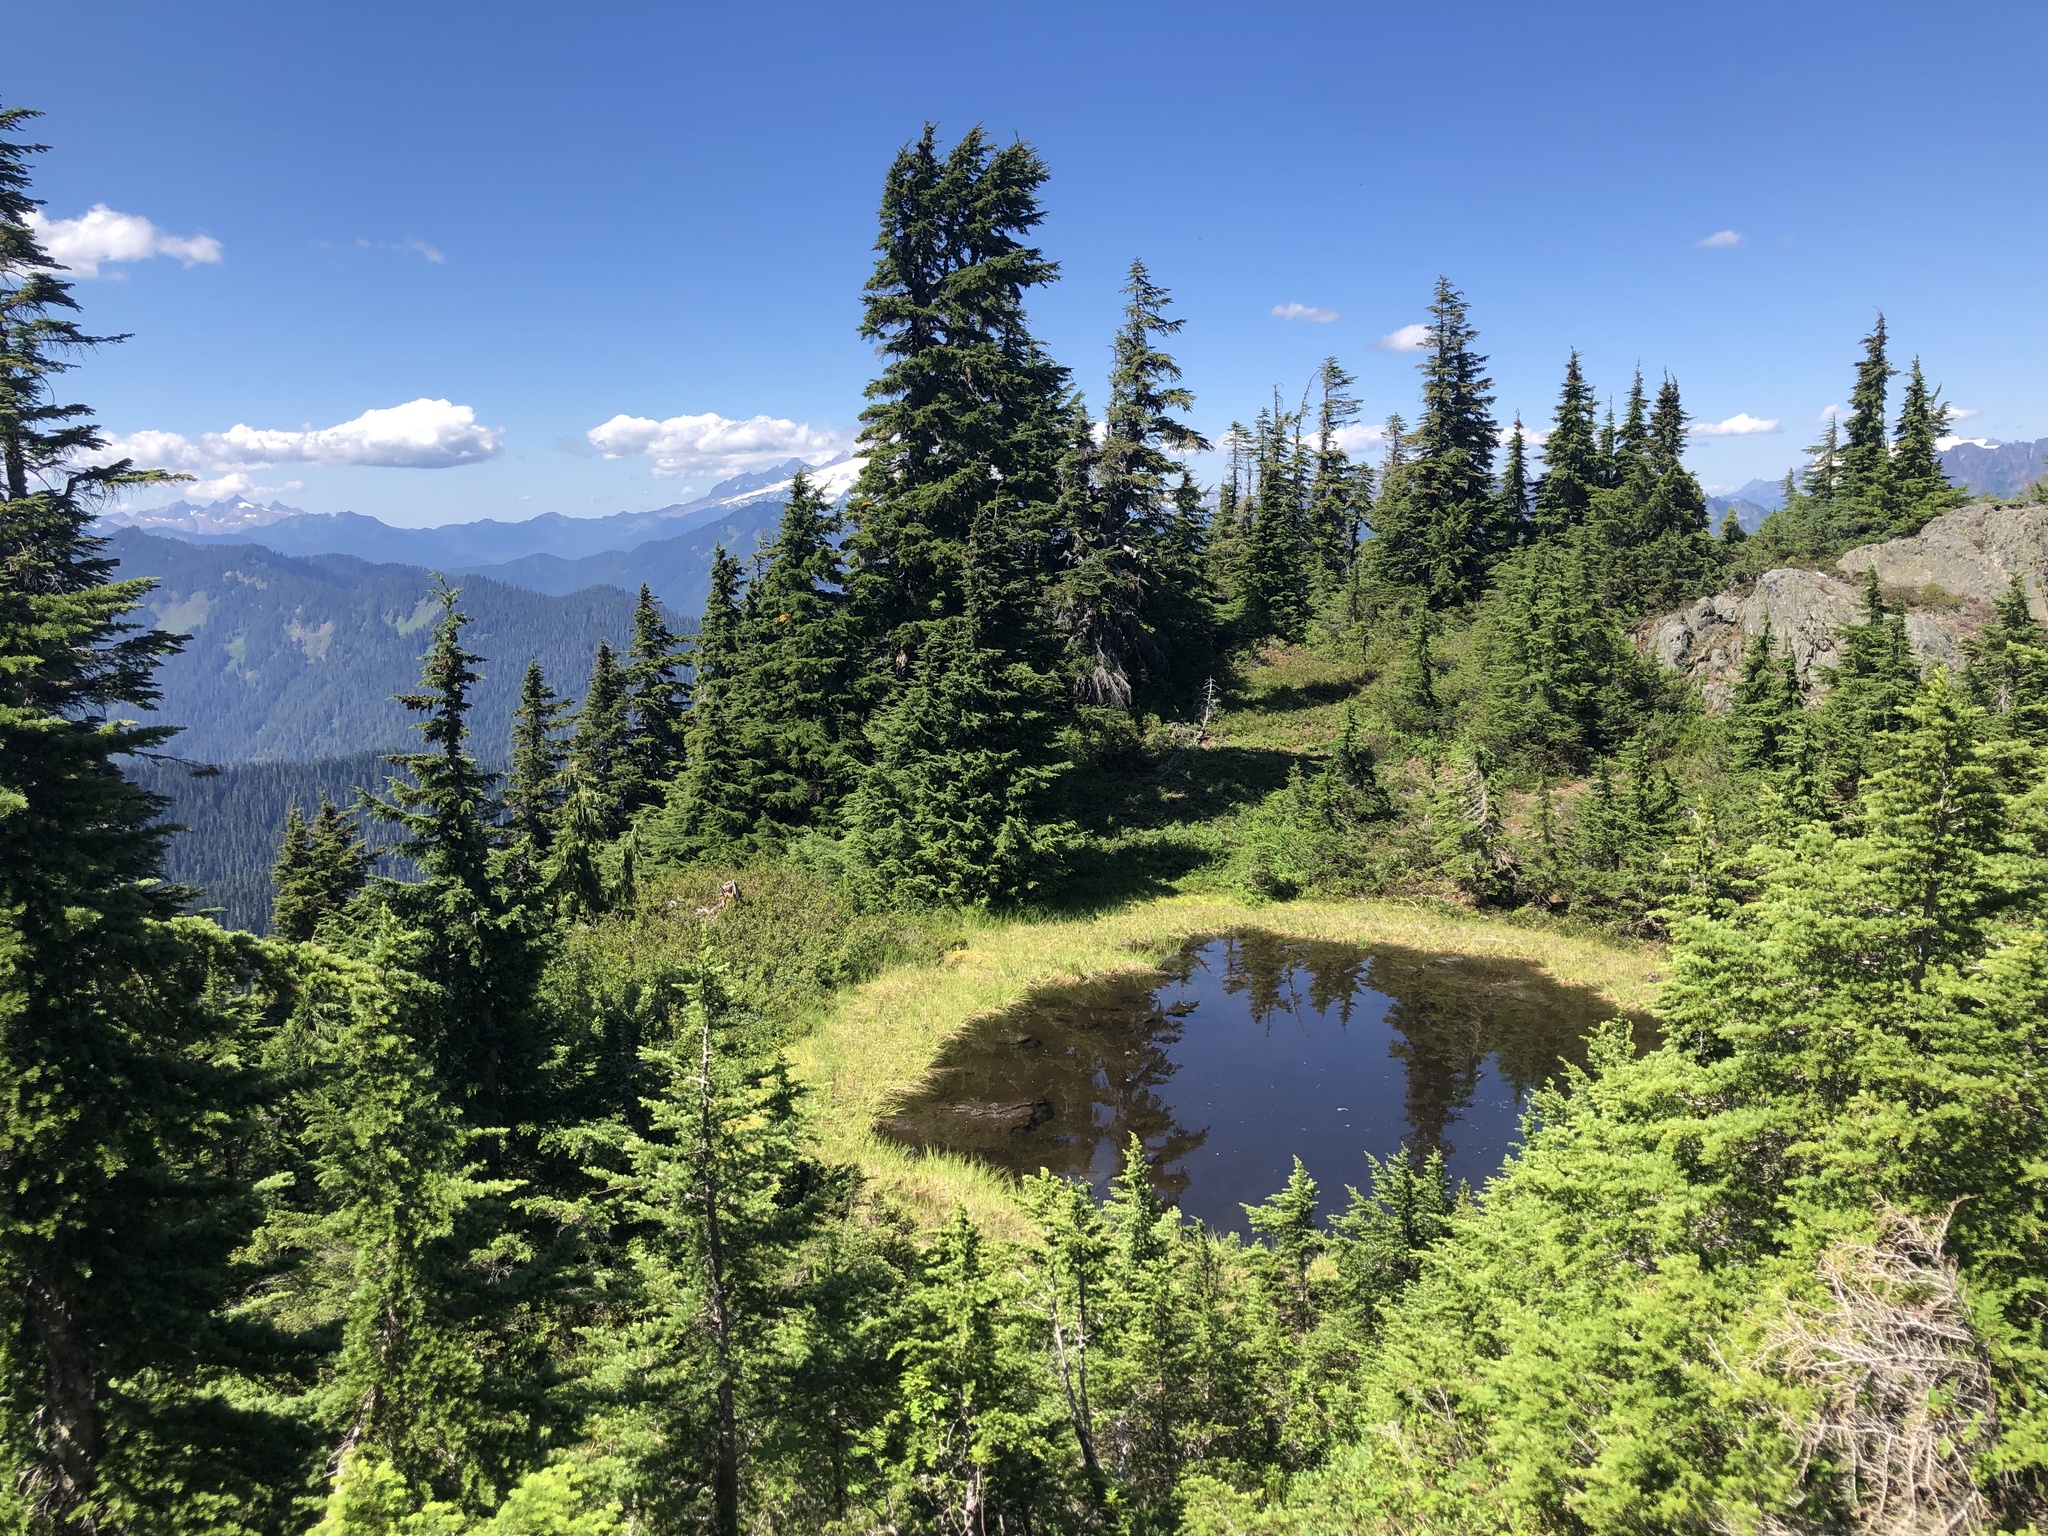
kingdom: Plantae
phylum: Tracheophyta
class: Pinopsida
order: Pinales
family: Pinaceae
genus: Tsuga
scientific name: Tsuga mertensiana
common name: Mountain hemlock
